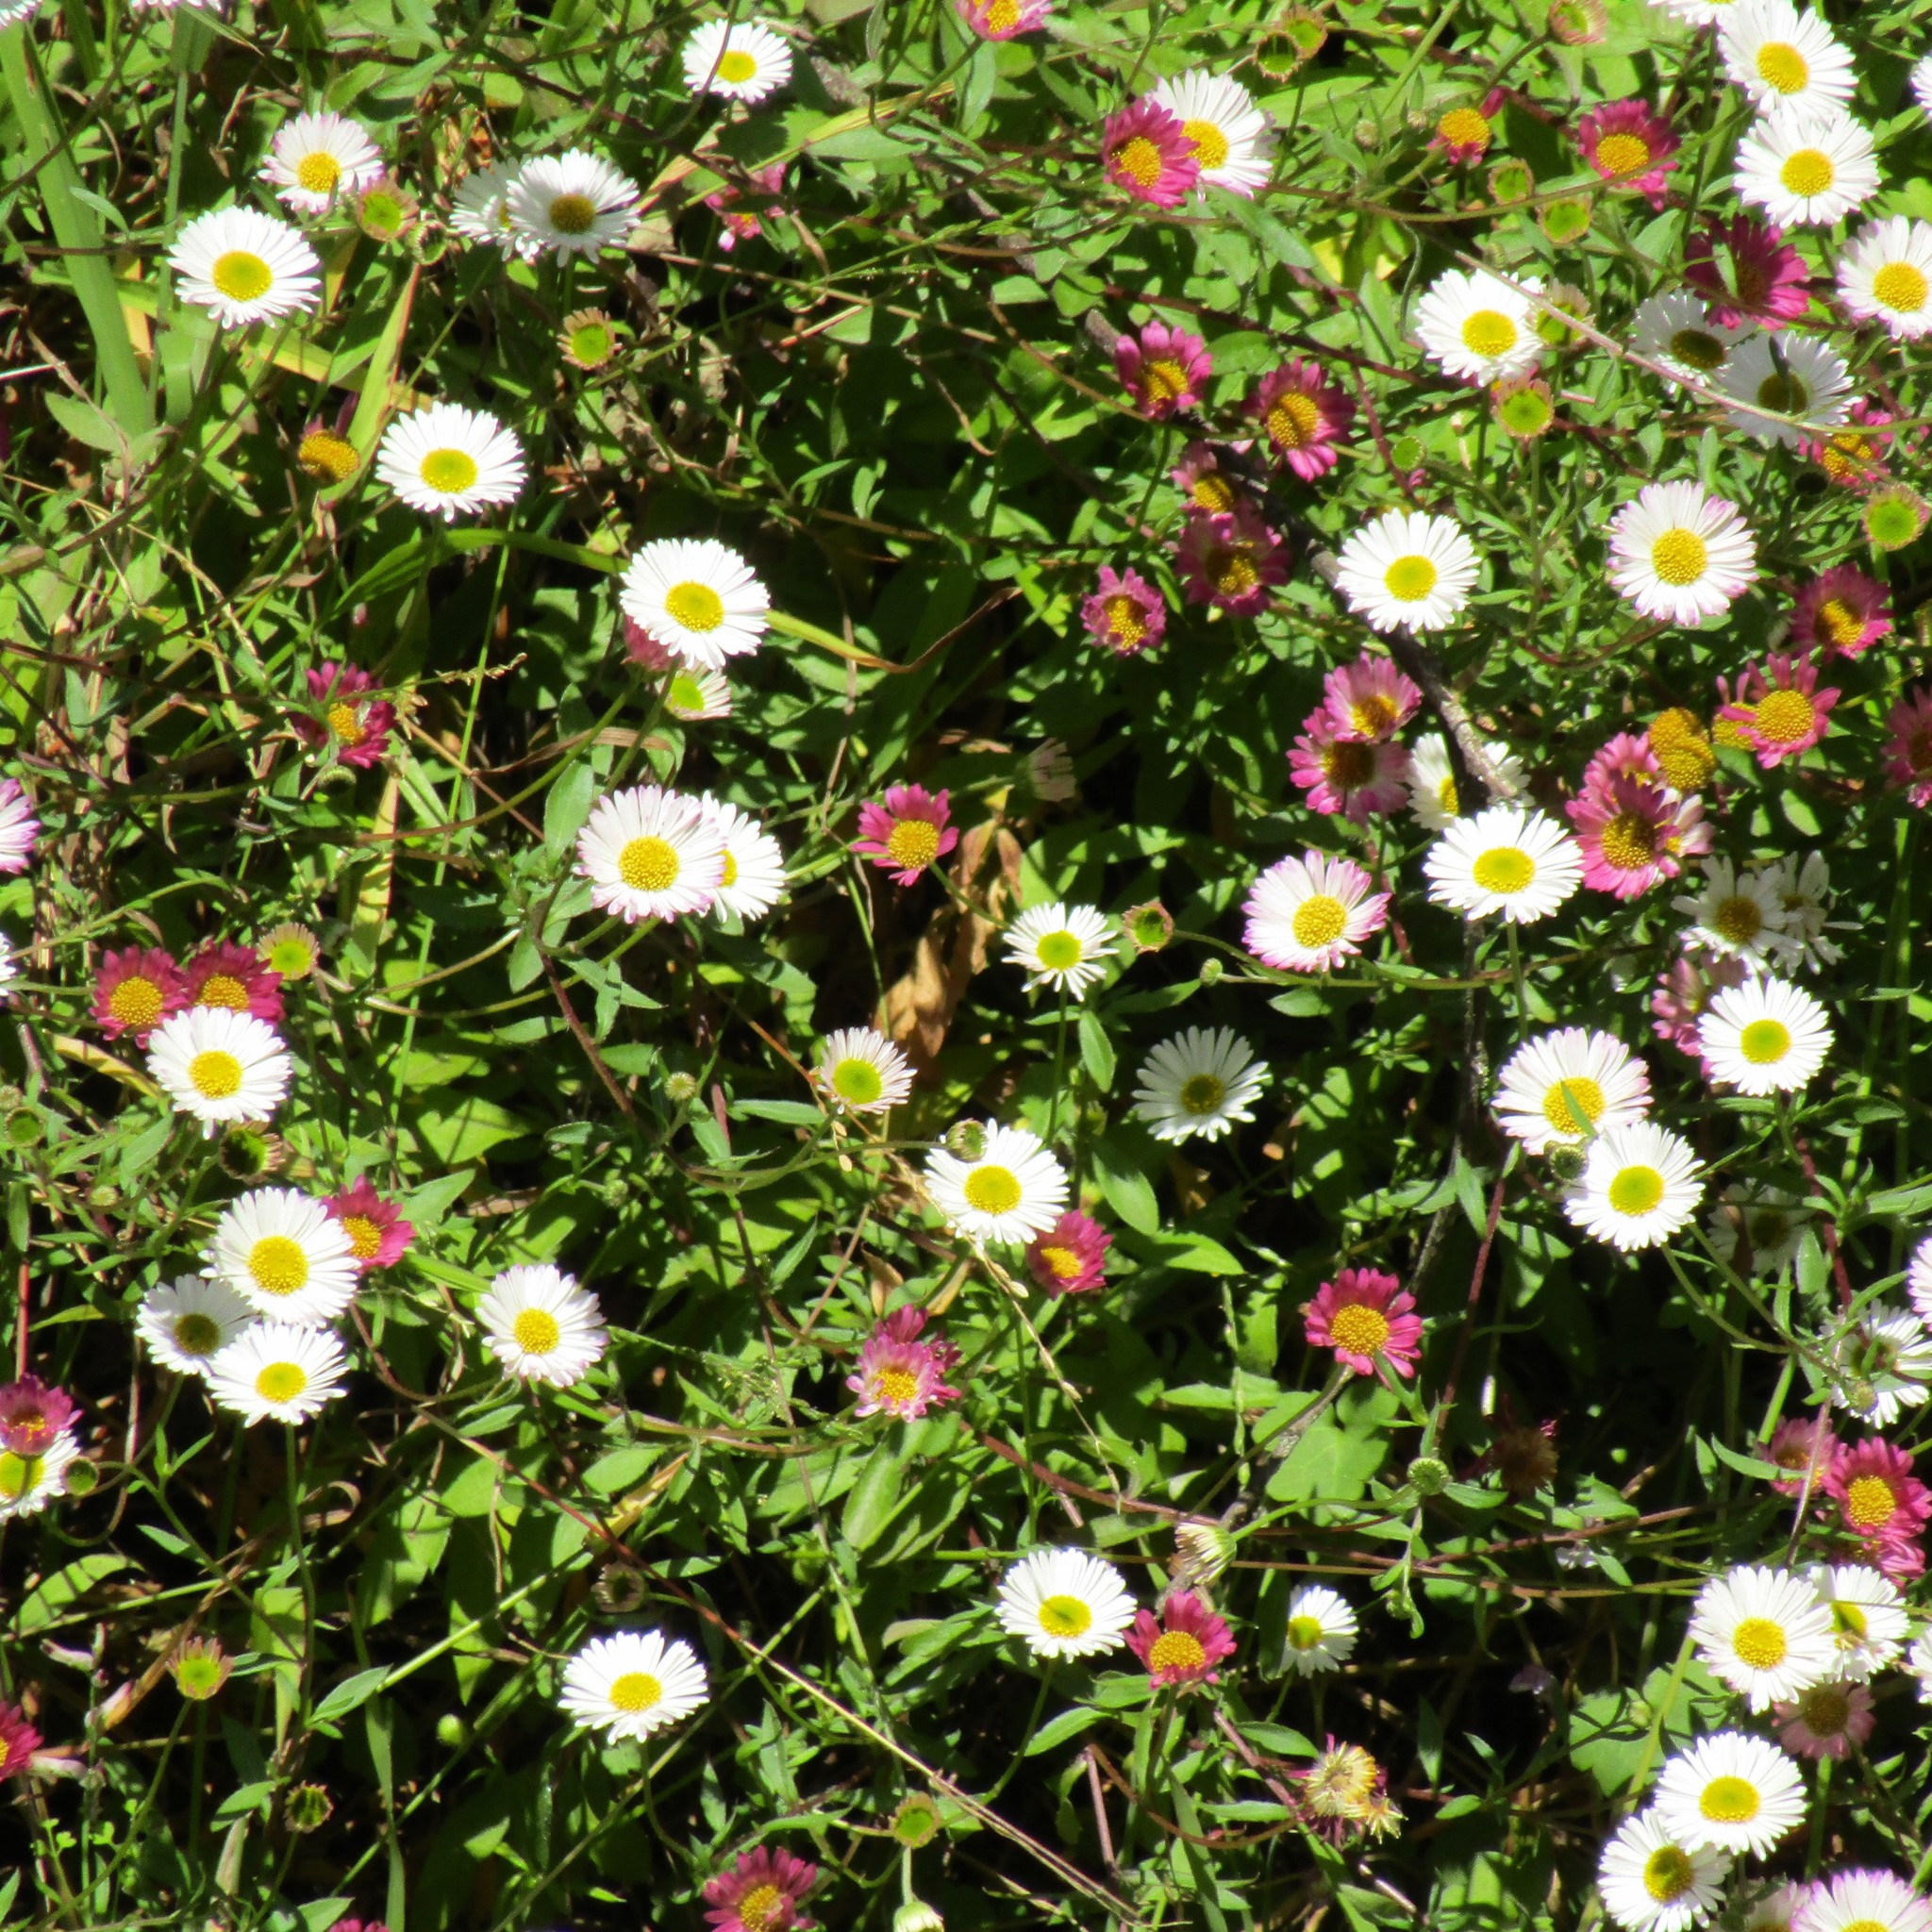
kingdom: Plantae
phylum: Tracheophyta
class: Magnoliopsida
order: Asterales
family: Asteraceae
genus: Erigeron
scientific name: Erigeron karvinskianus
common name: Mexican fleabane
